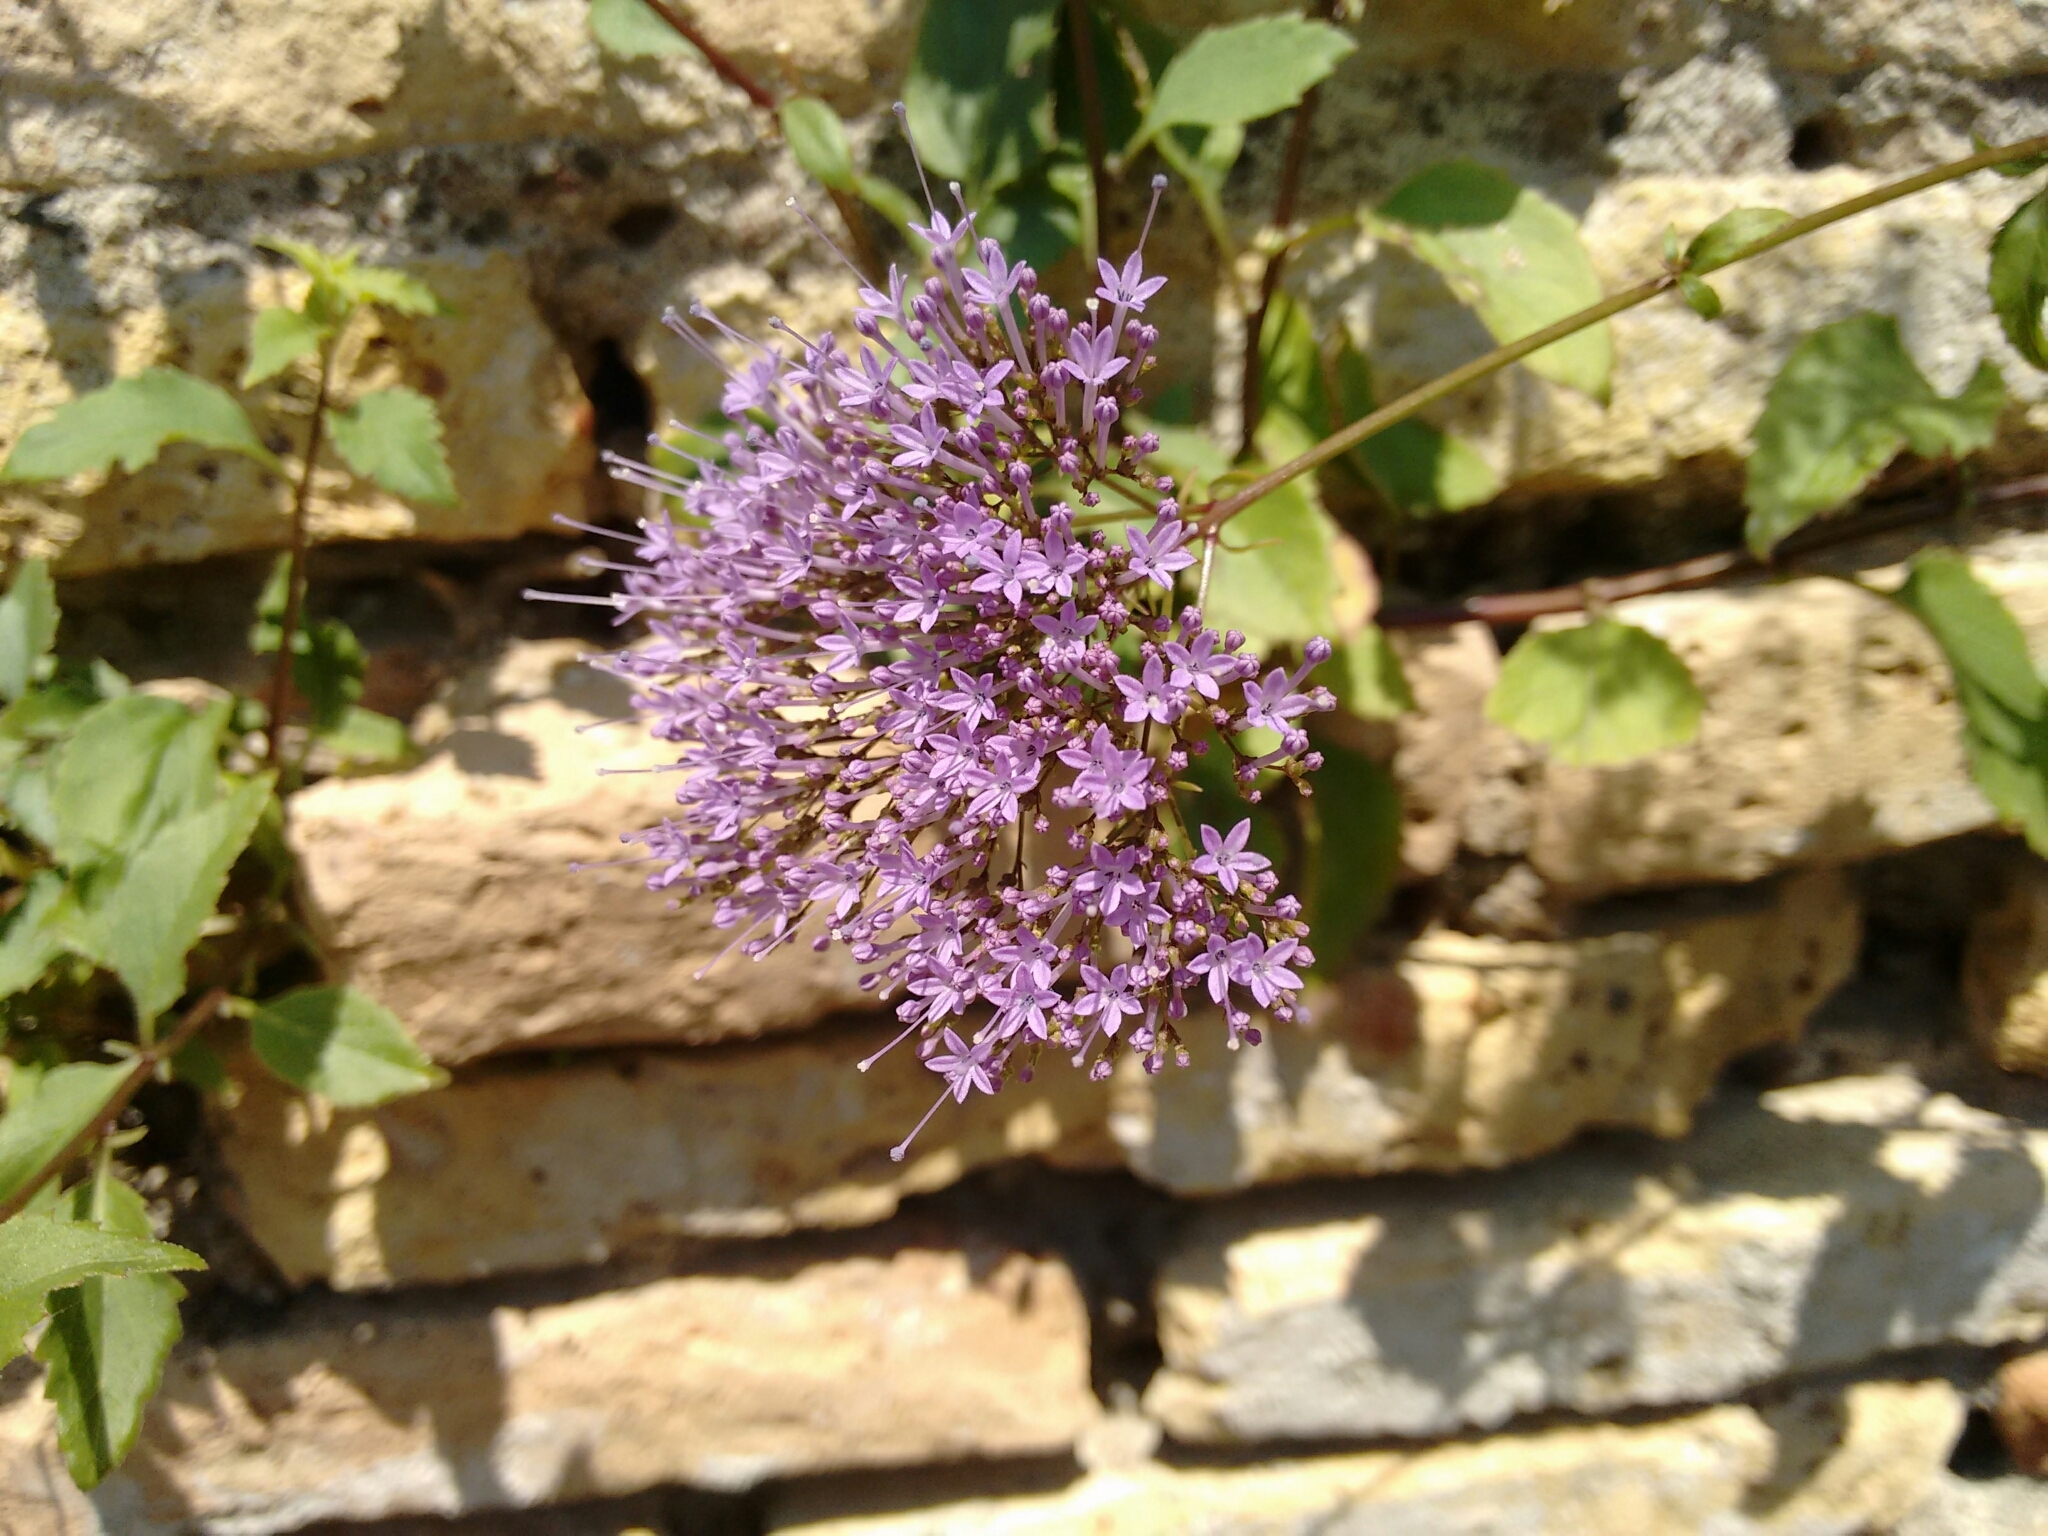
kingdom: Plantae
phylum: Tracheophyta
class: Magnoliopsida
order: Asterales
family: Campanulaceae
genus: Trachelium
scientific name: Trachelium caeruleum
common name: Throatwort
